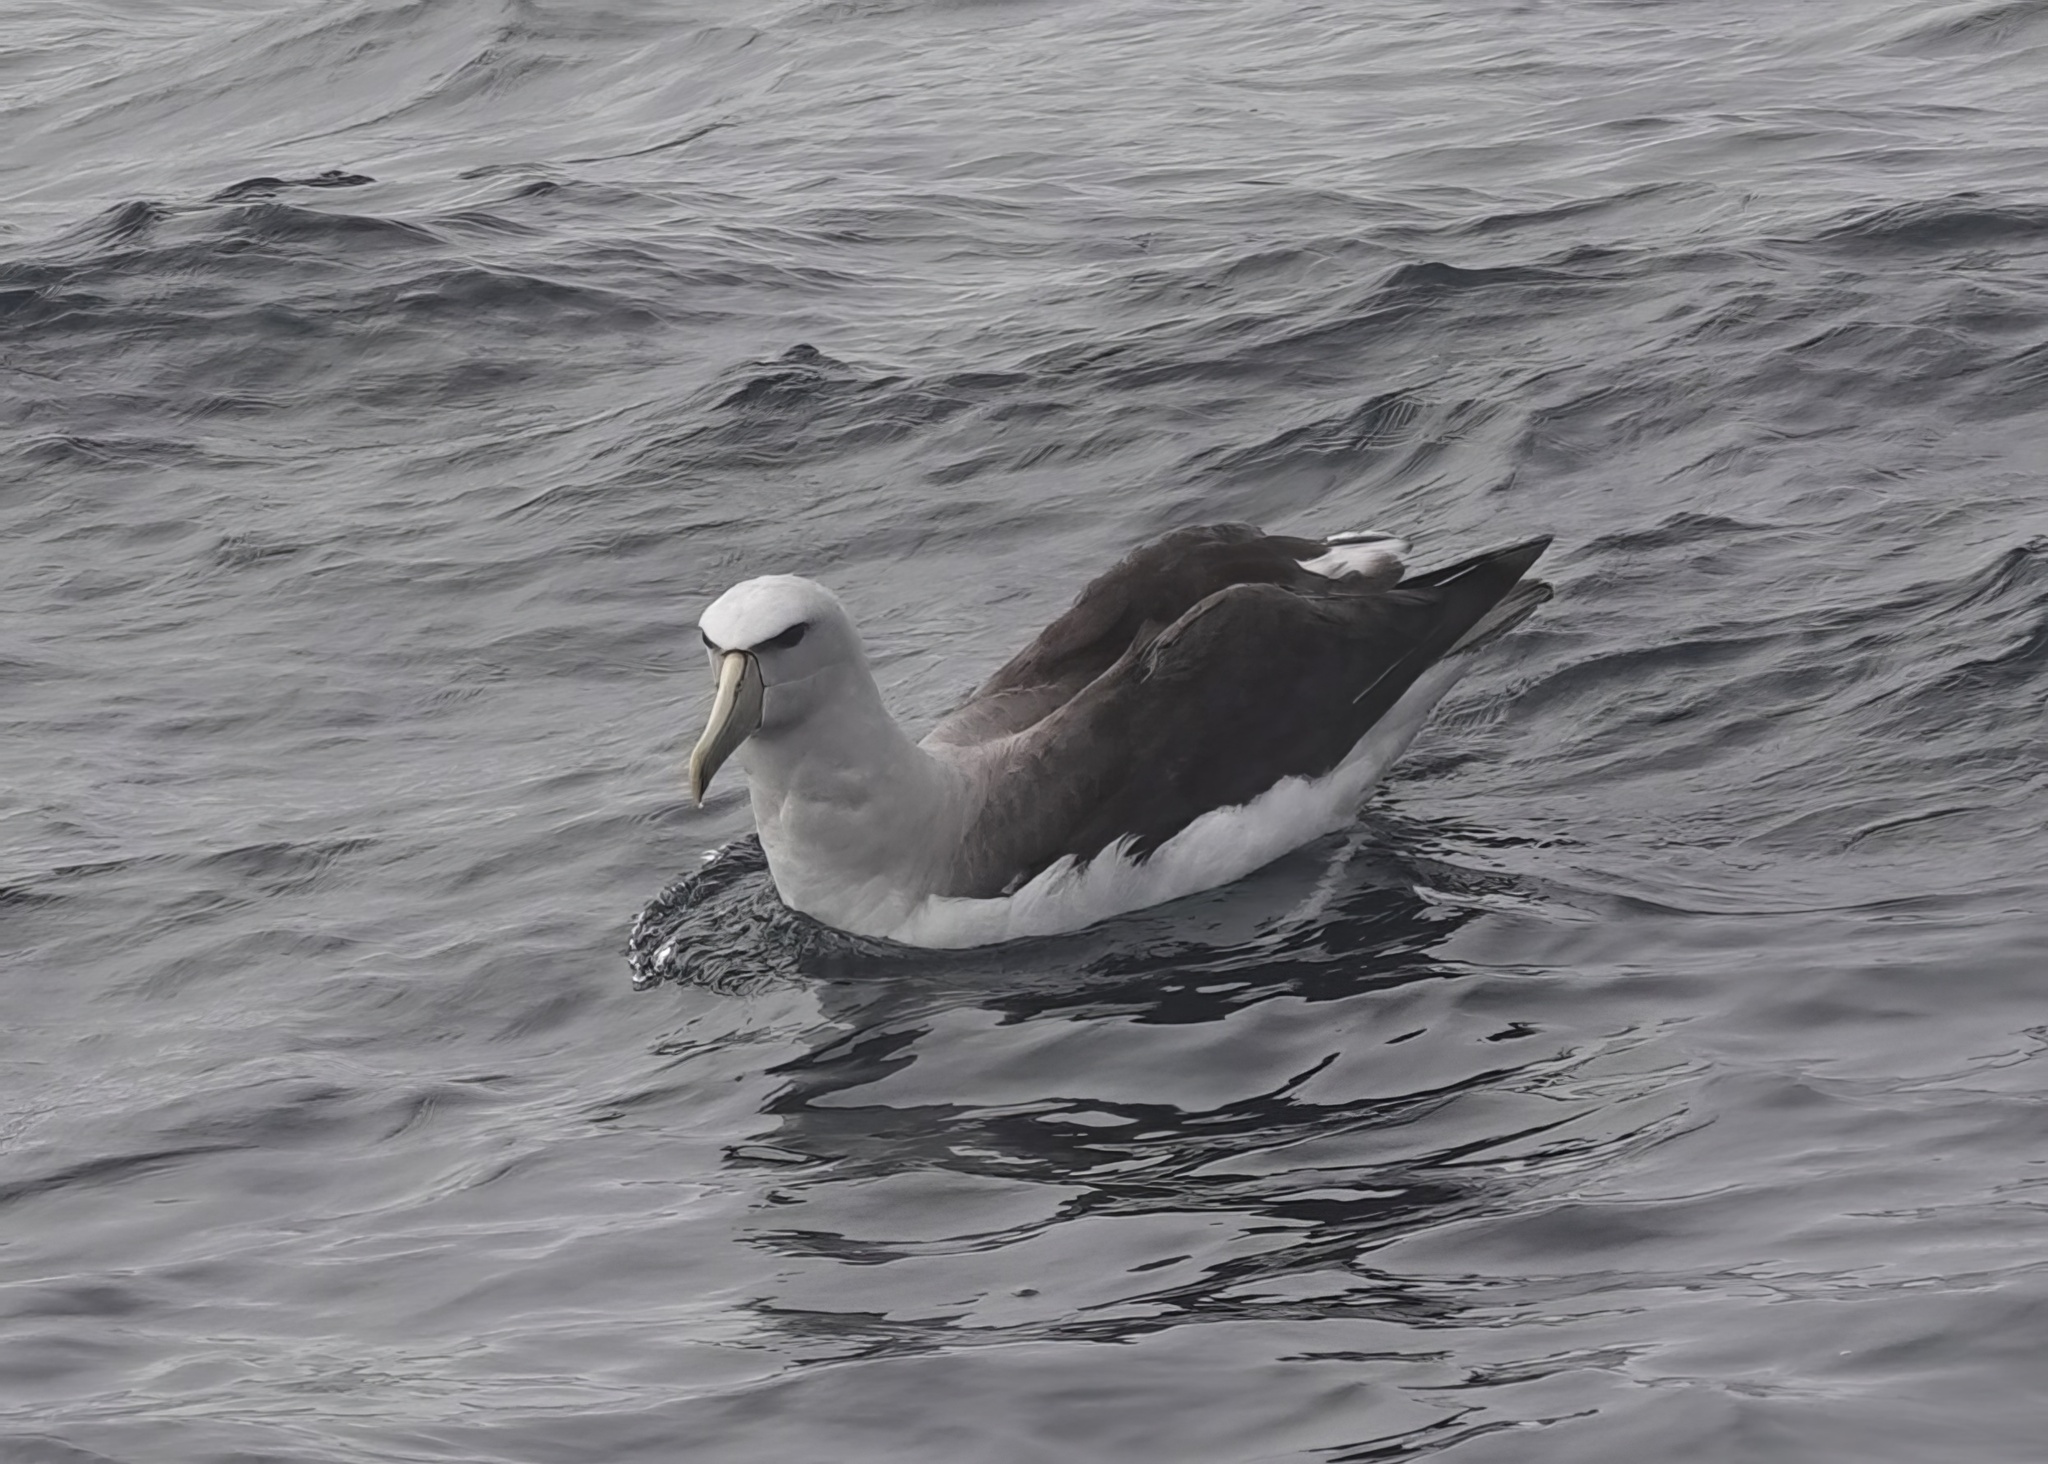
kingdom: Animalia
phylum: Chordata
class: Aves
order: Procellariiformes
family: Diomedeidae
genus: Thalassarche
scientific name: Thalassarche salvini
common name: Salvin's albatross
